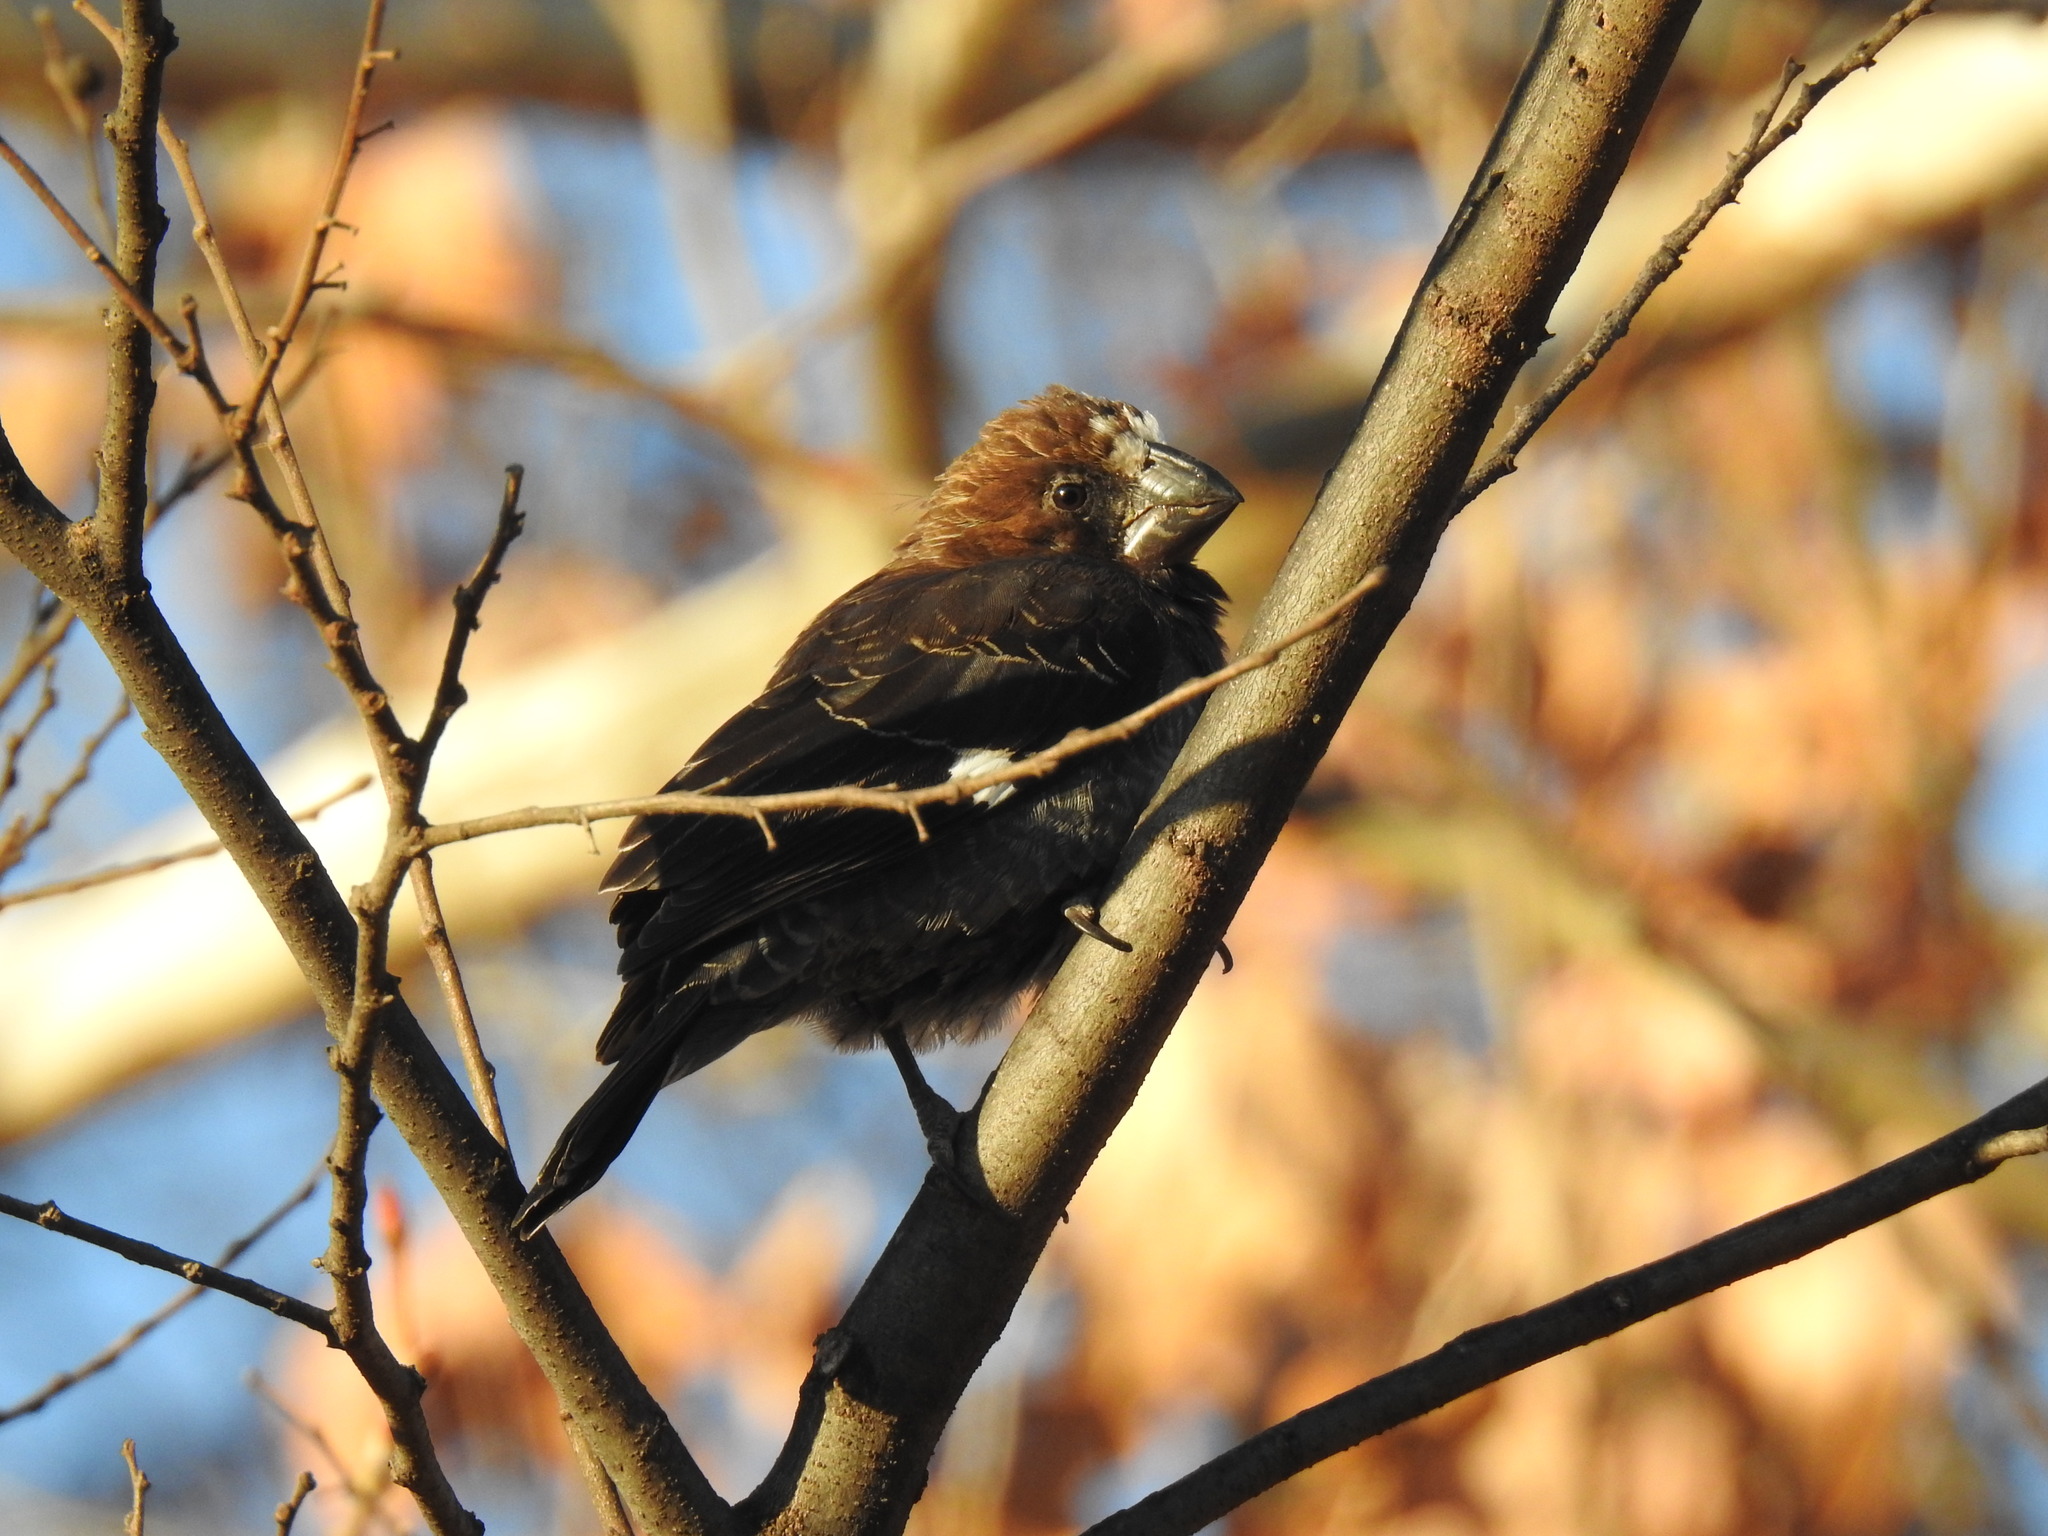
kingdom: Animalia
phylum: Chordata
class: Aves
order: Passeriformes
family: Ploceidae
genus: Amblyospiza
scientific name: Amblyospiza albifrons
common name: Thick-billed weaver
